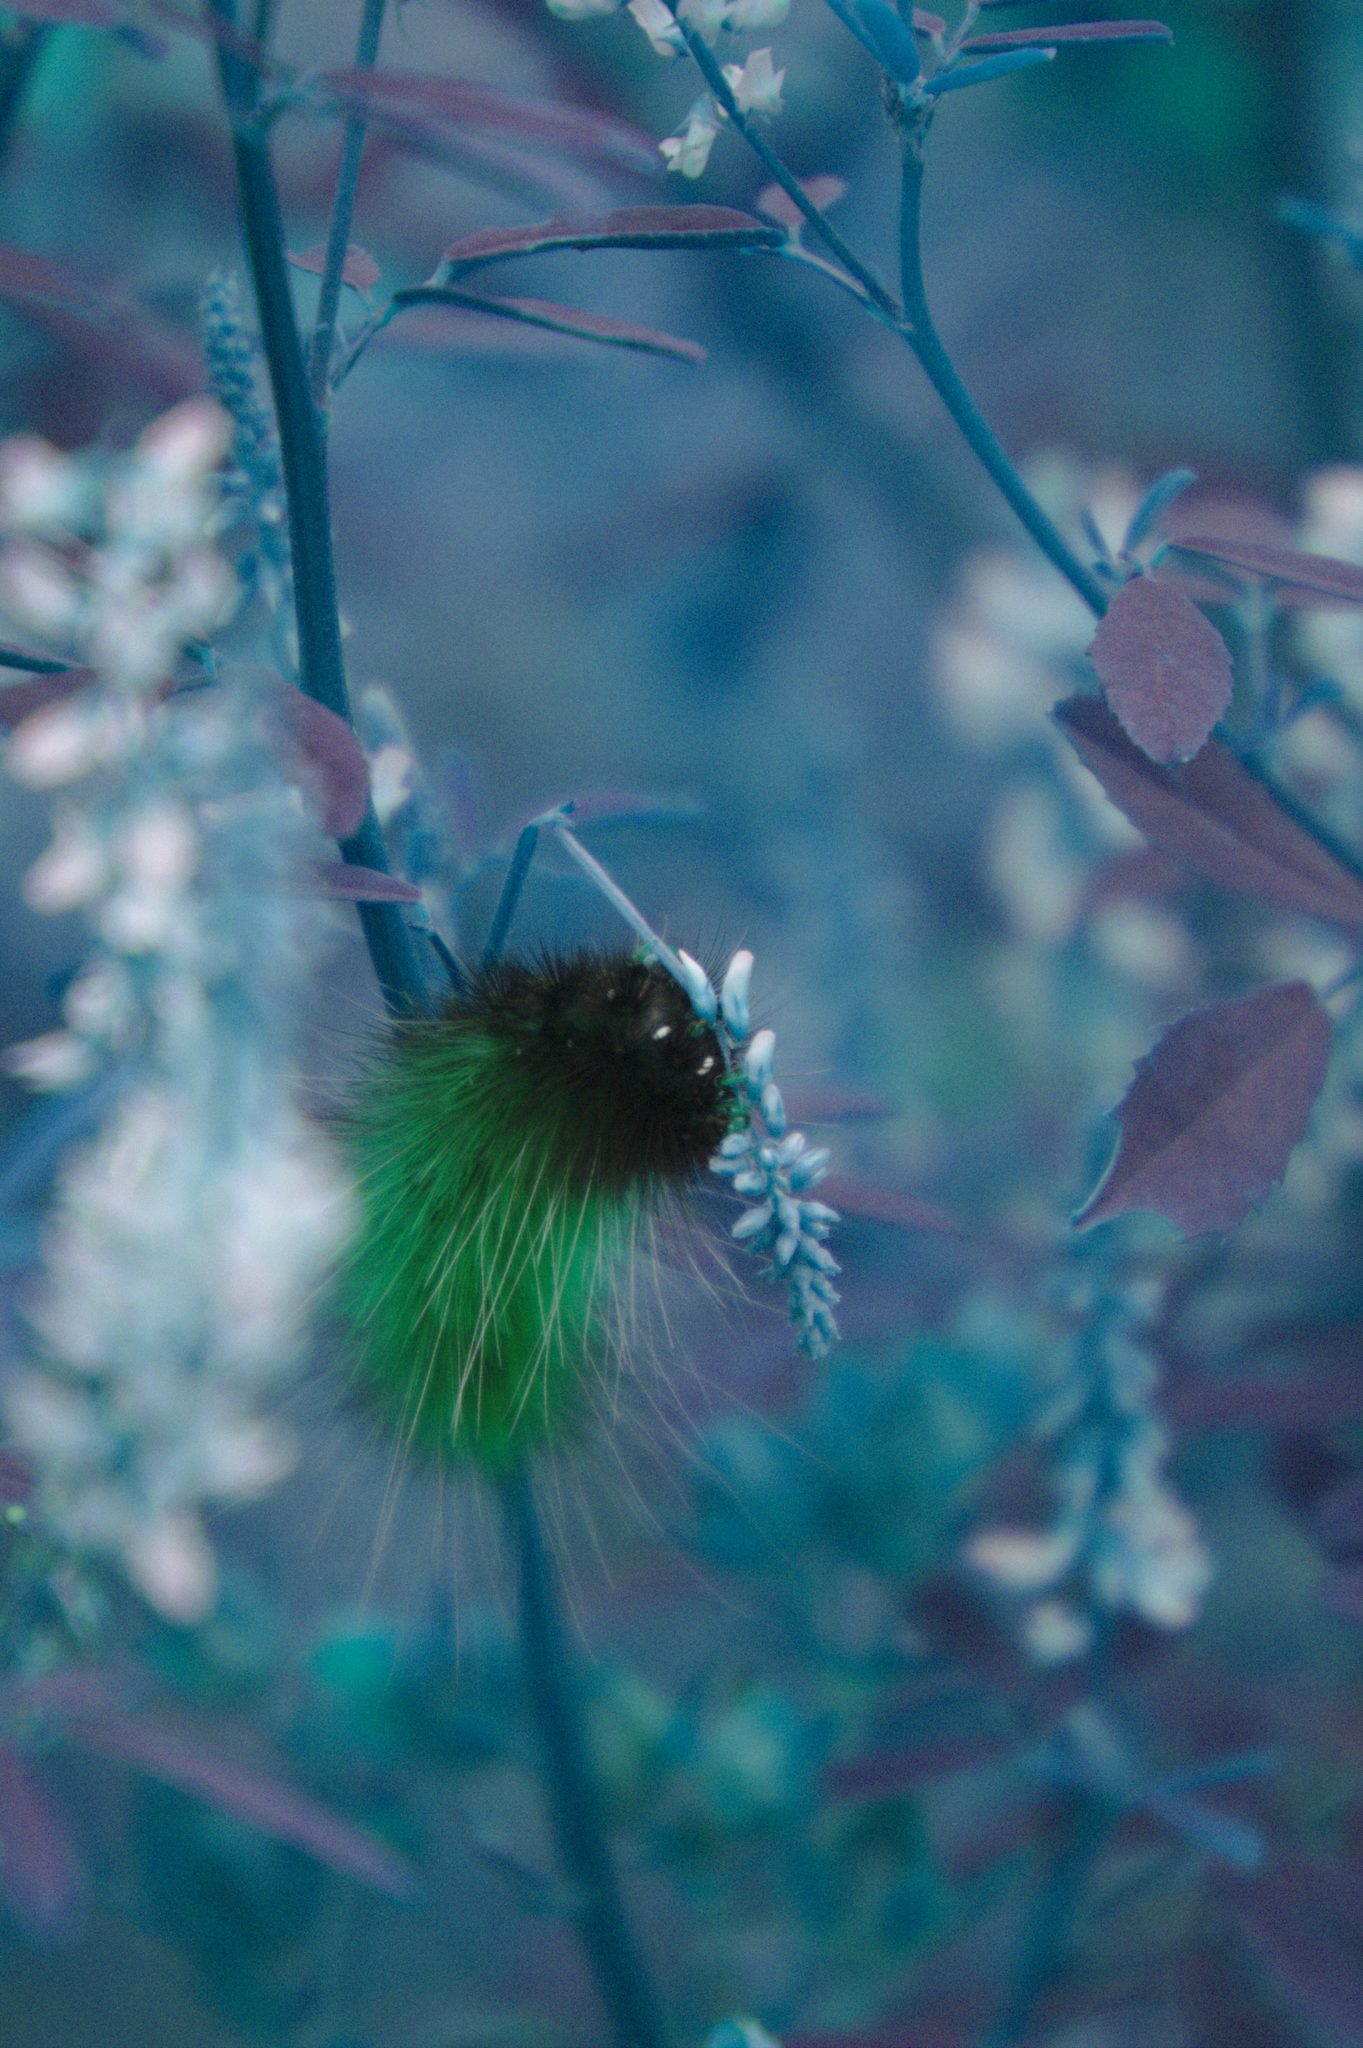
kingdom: Animalia
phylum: Arthropoda
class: Insecta
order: Lepidoptera
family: Erebidae
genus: Spilosoma
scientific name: Spilosoma virginica
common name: Virginia tiger moth
